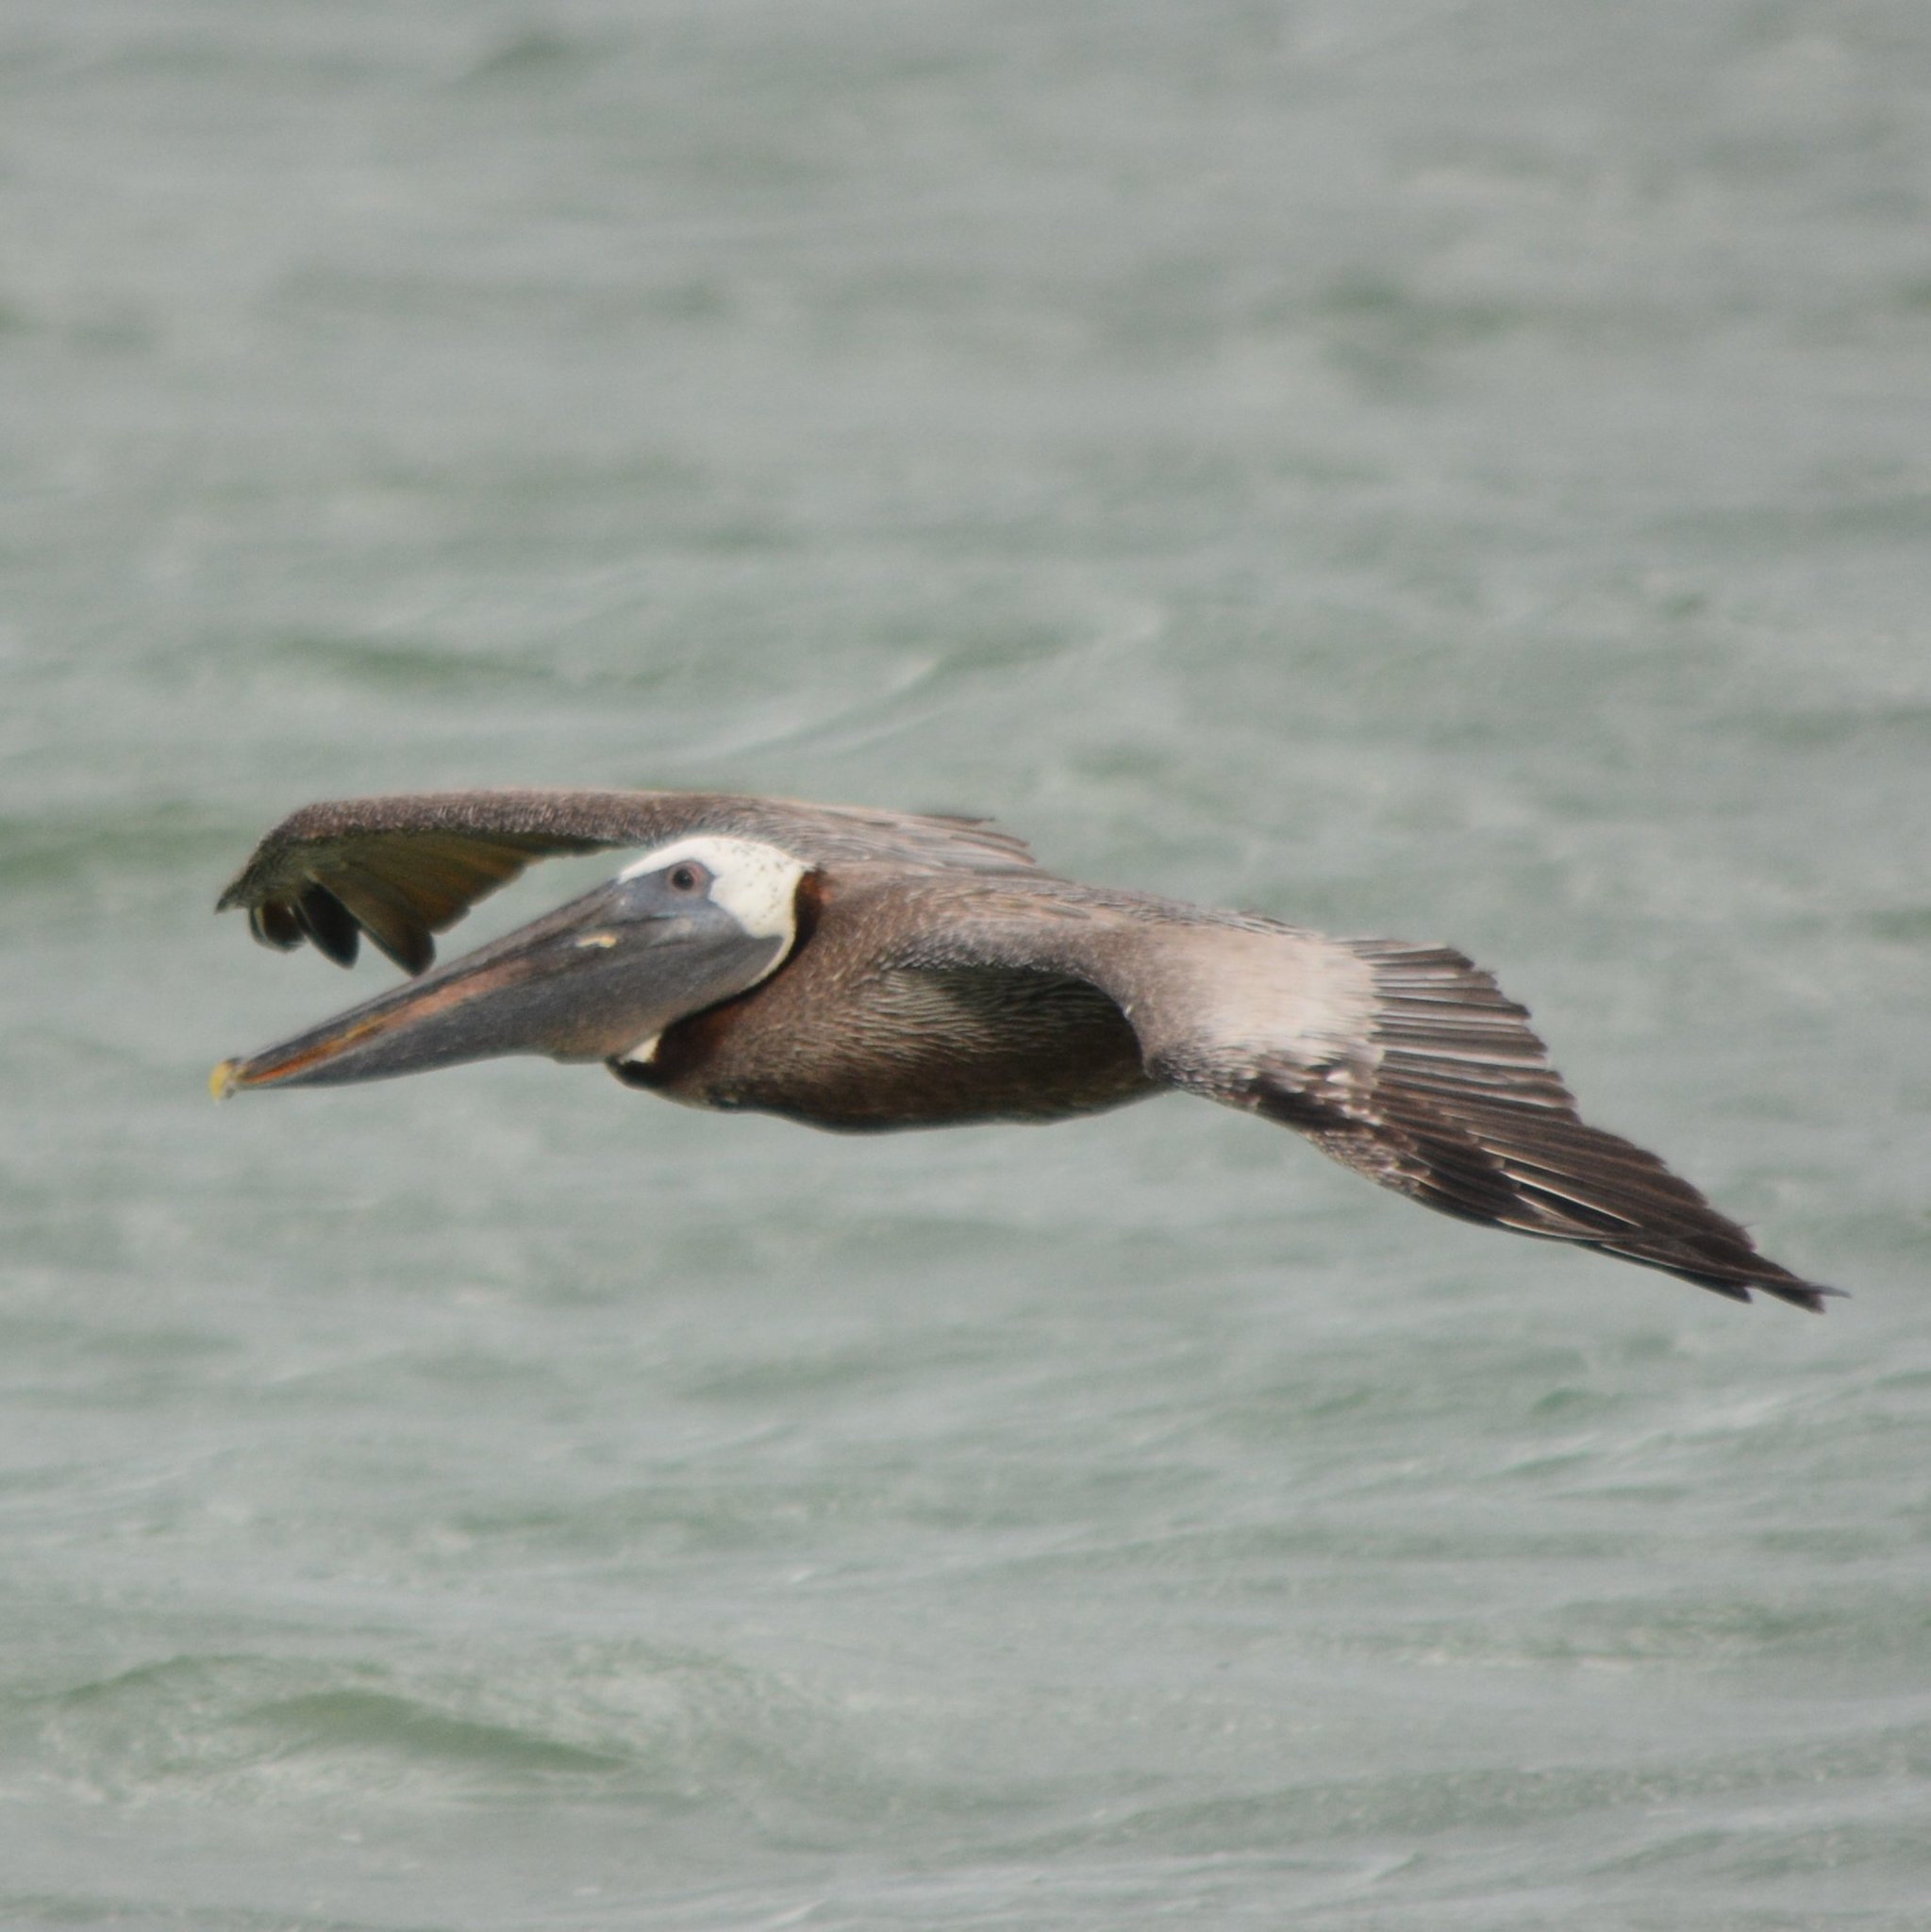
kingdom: Animalia
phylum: Chordata
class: Aves
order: Pelecaniformes
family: Pelecanidae
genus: Pelecanus
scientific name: Pelecanus occidentalis
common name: Brown pelican
